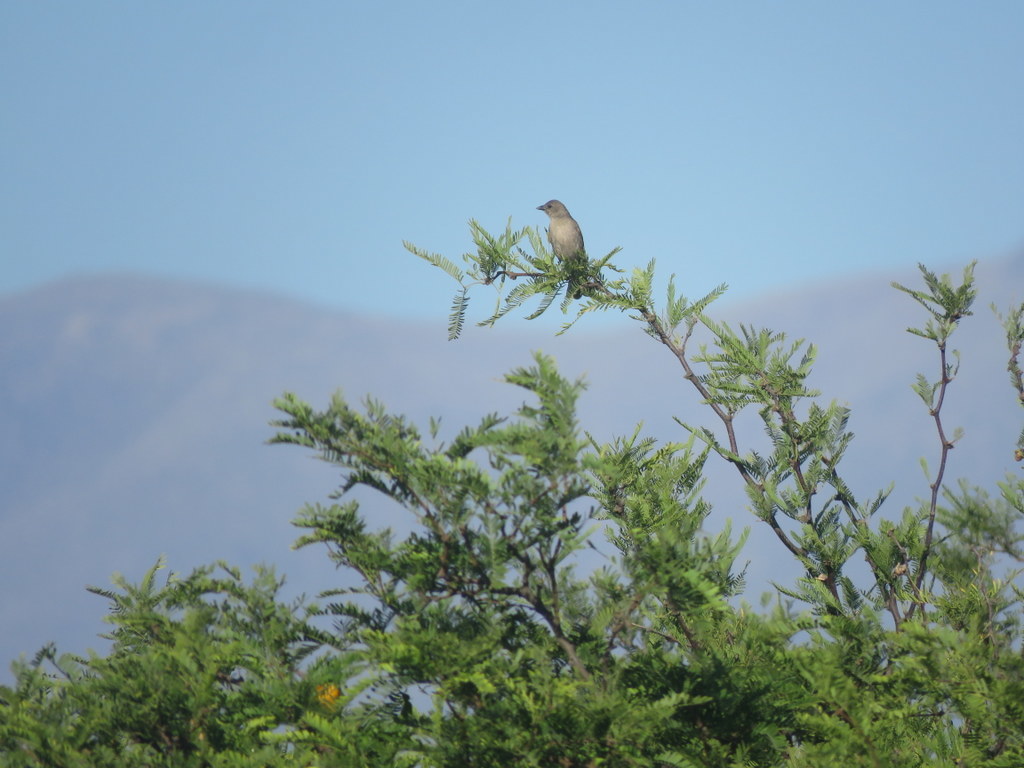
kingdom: Animalia
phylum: Chordata
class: Aves
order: Passeriformes
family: Icteridae
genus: Molothrus
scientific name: Molothrus bonariensis
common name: Shiny cowbird
